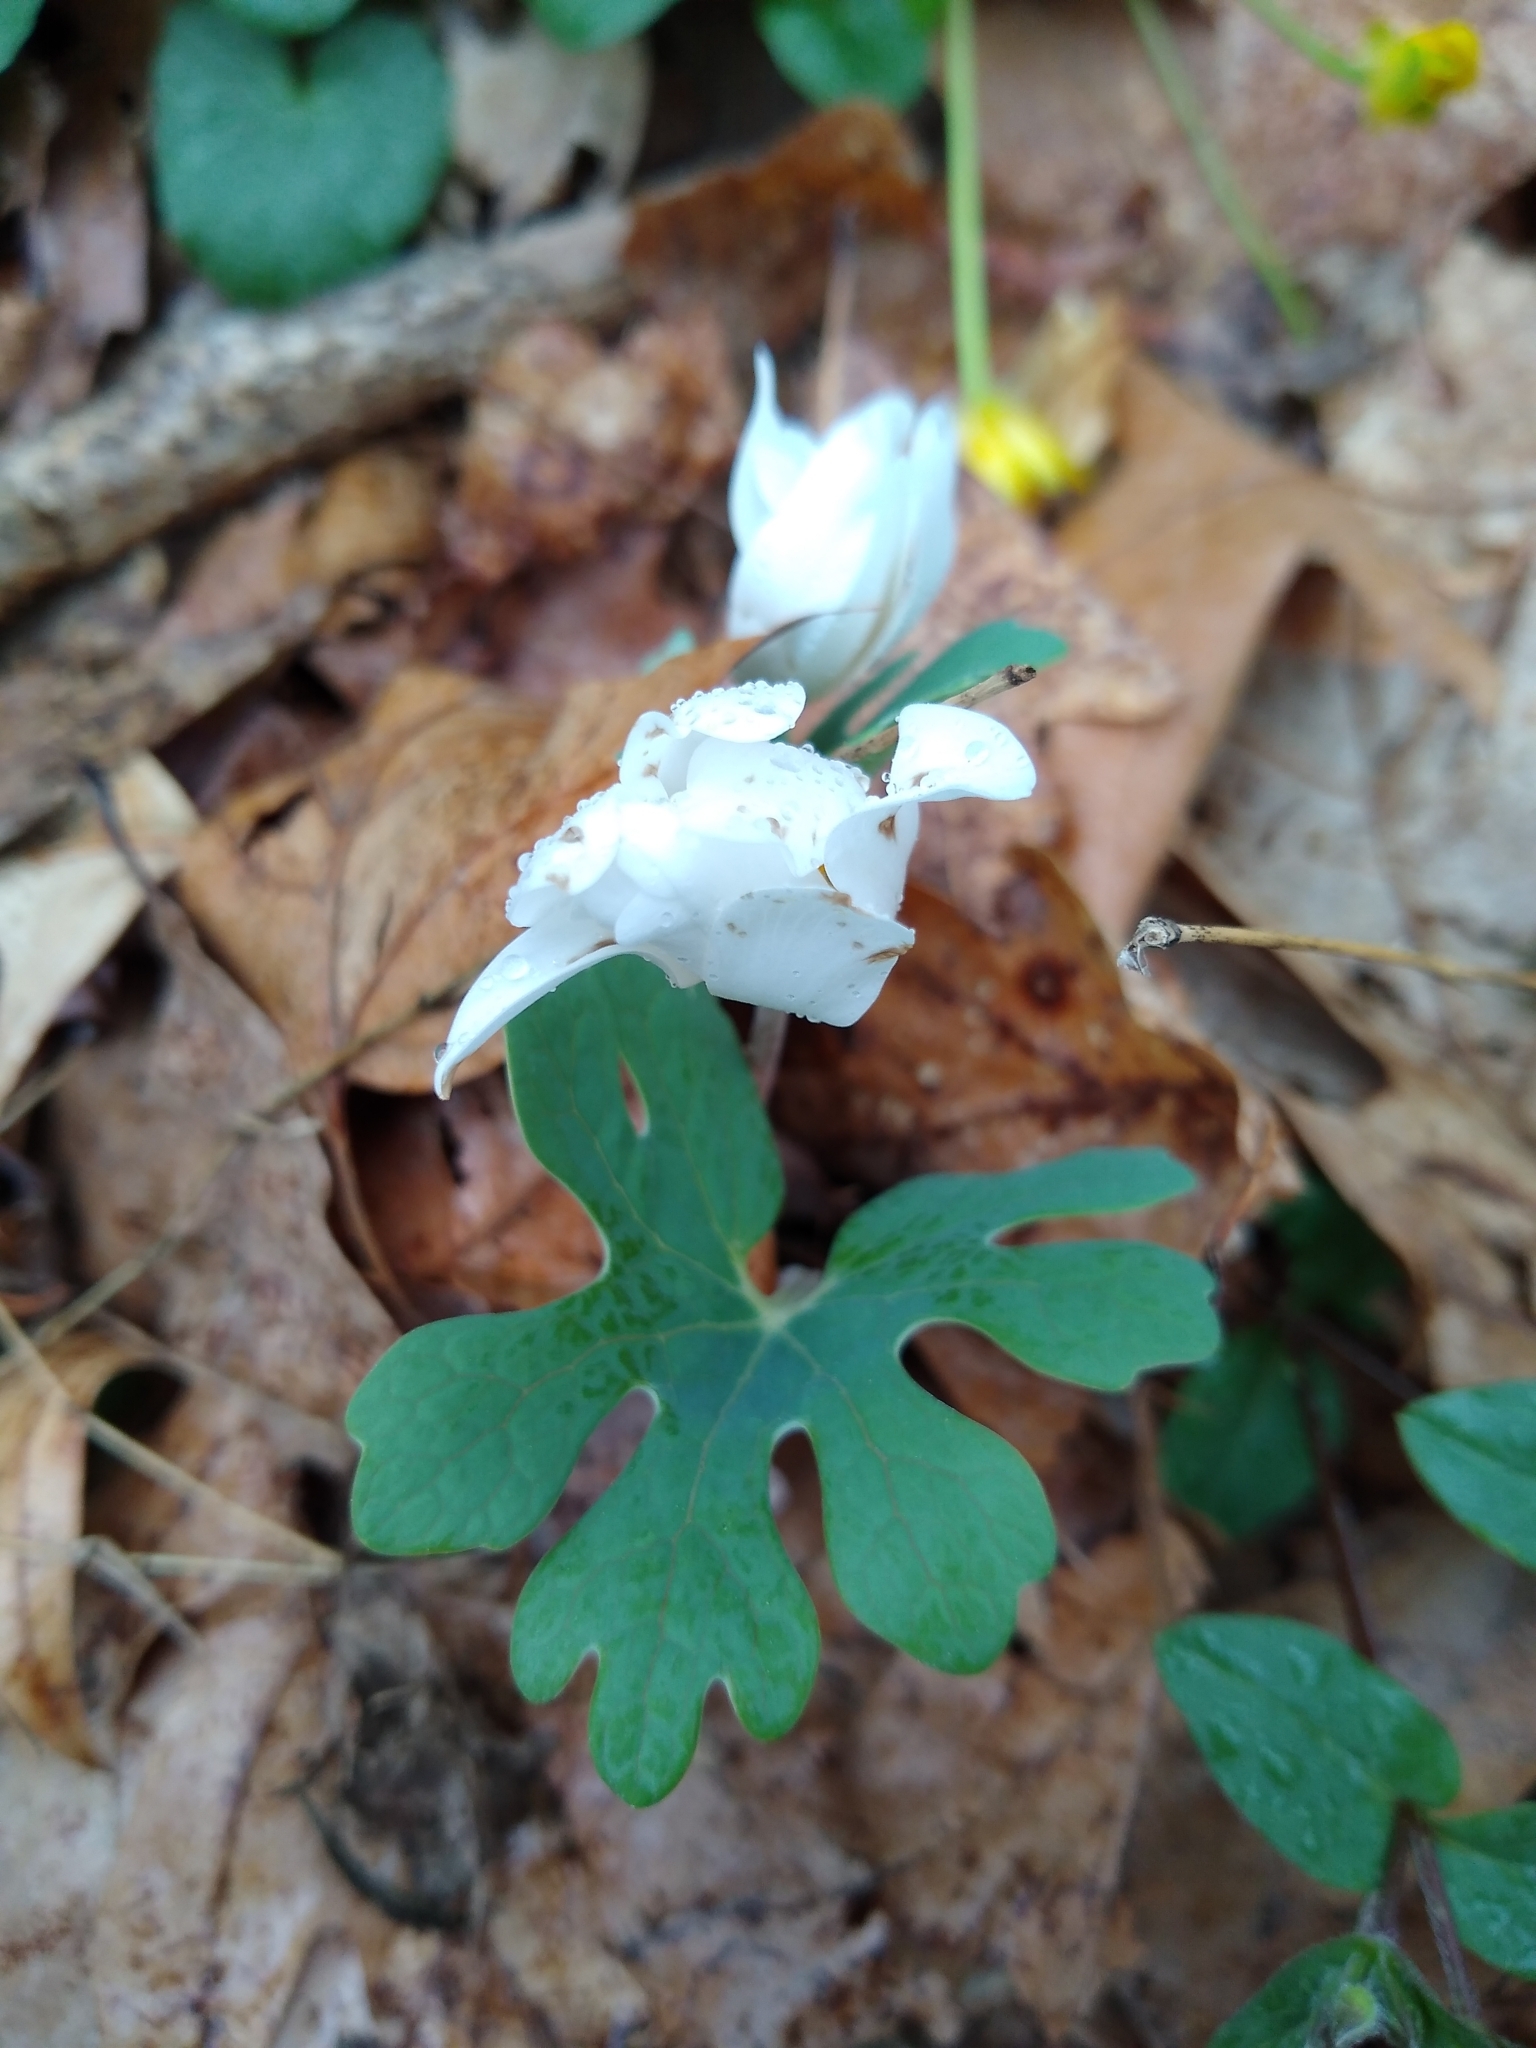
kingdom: Plantae
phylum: Tracheophyta
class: Magnoliopsida
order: Ranunculales
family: Papaveraceae
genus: Sanguinaria
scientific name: Sanguinaria canadensis
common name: Bloodroot
